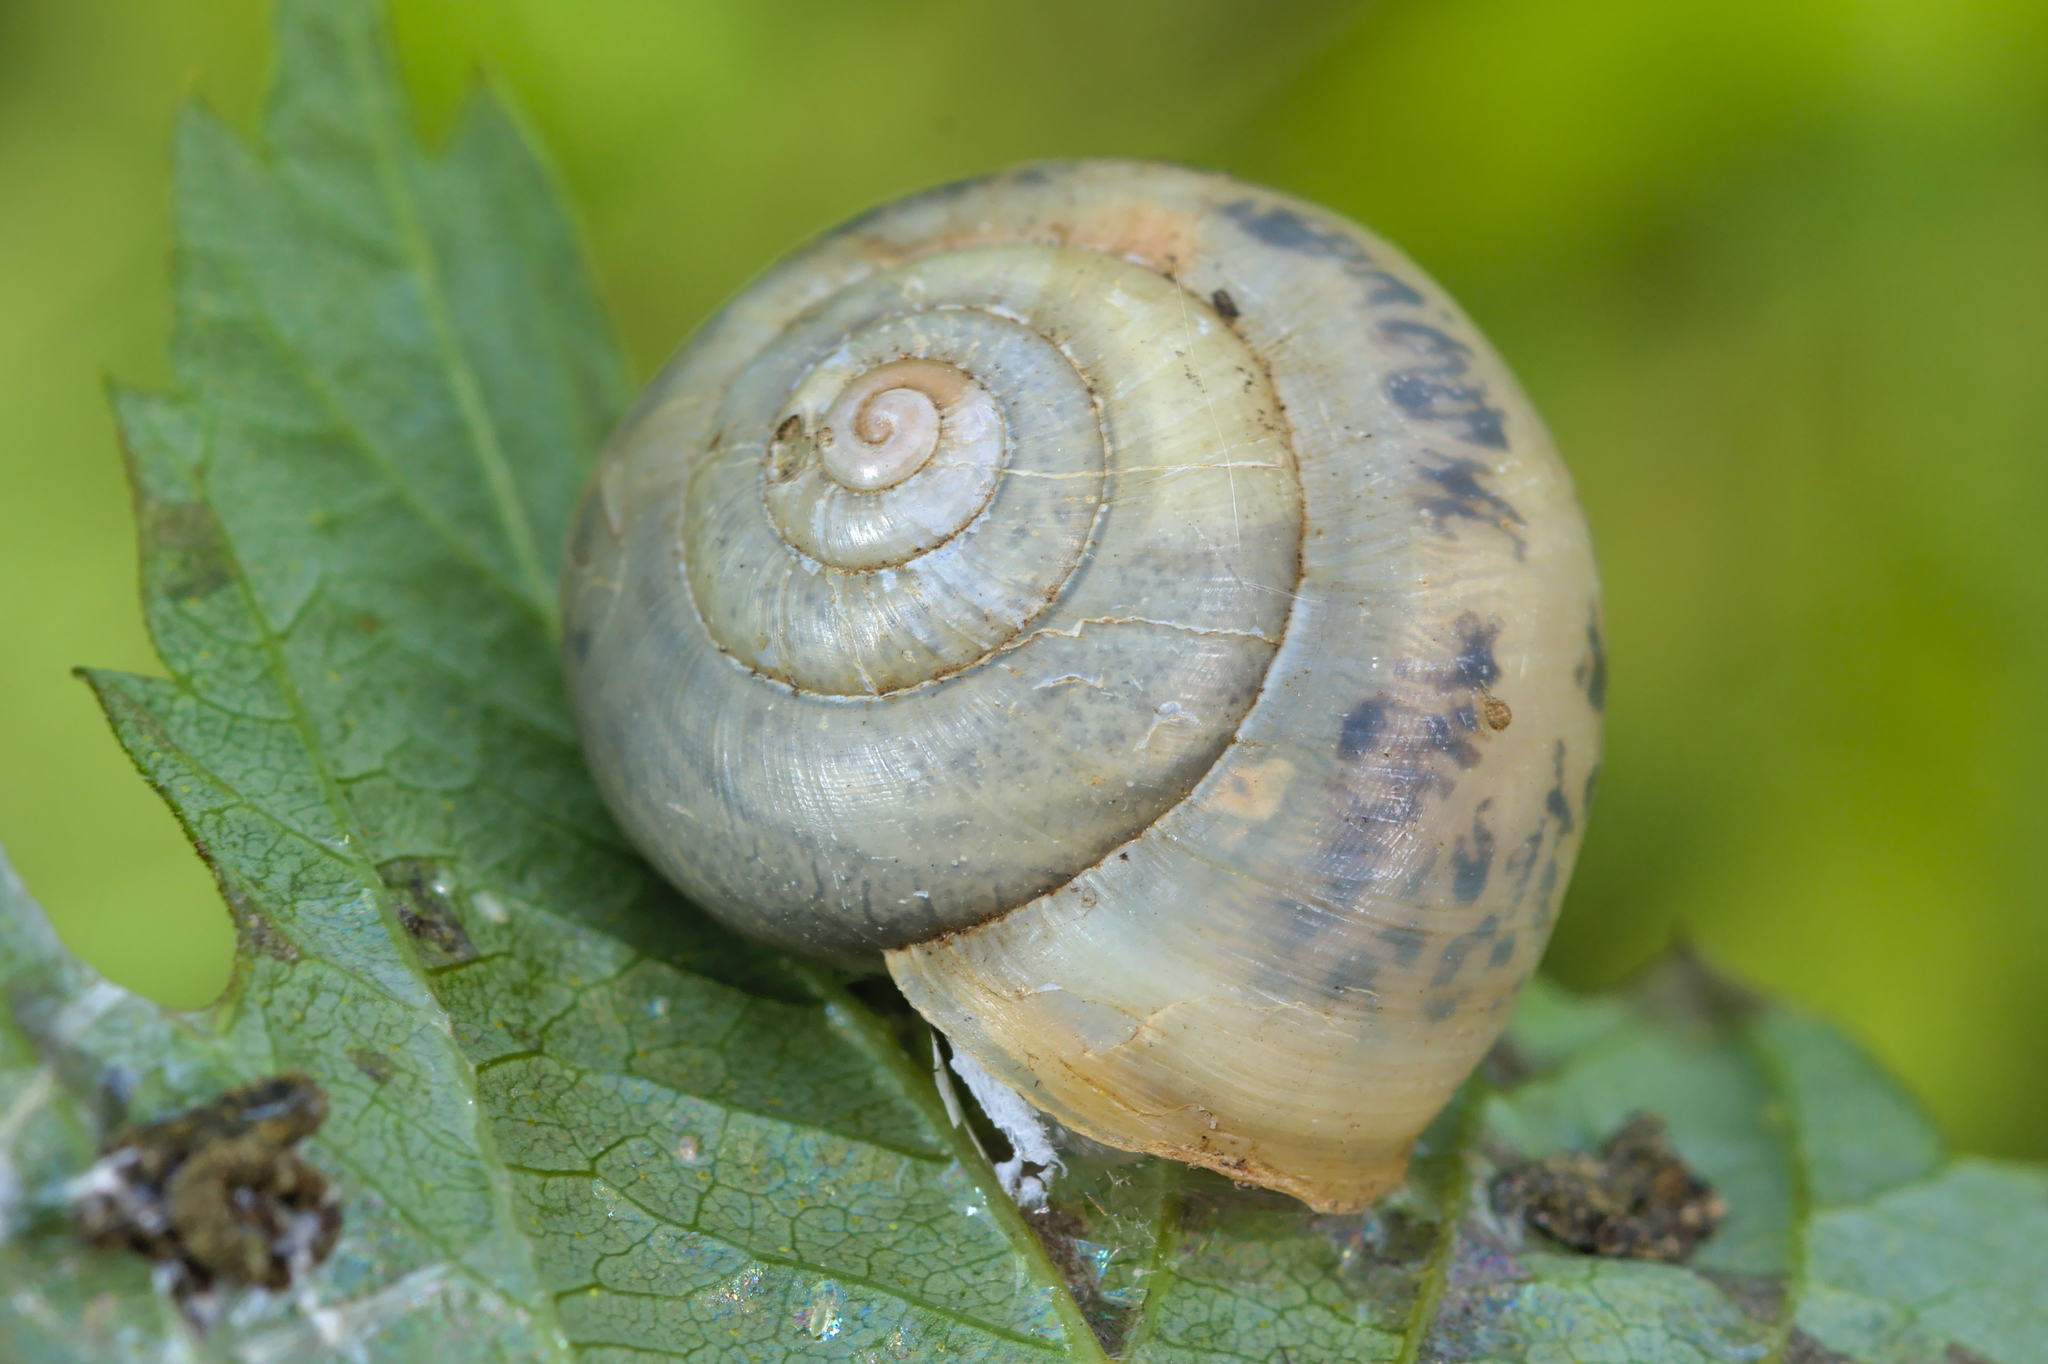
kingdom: Animalia
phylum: Mollusca
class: Gastropoda
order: Stylommatophora
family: Camaenidae
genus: Fruticicola
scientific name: Fruticicola fruticum
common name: Bush snail
